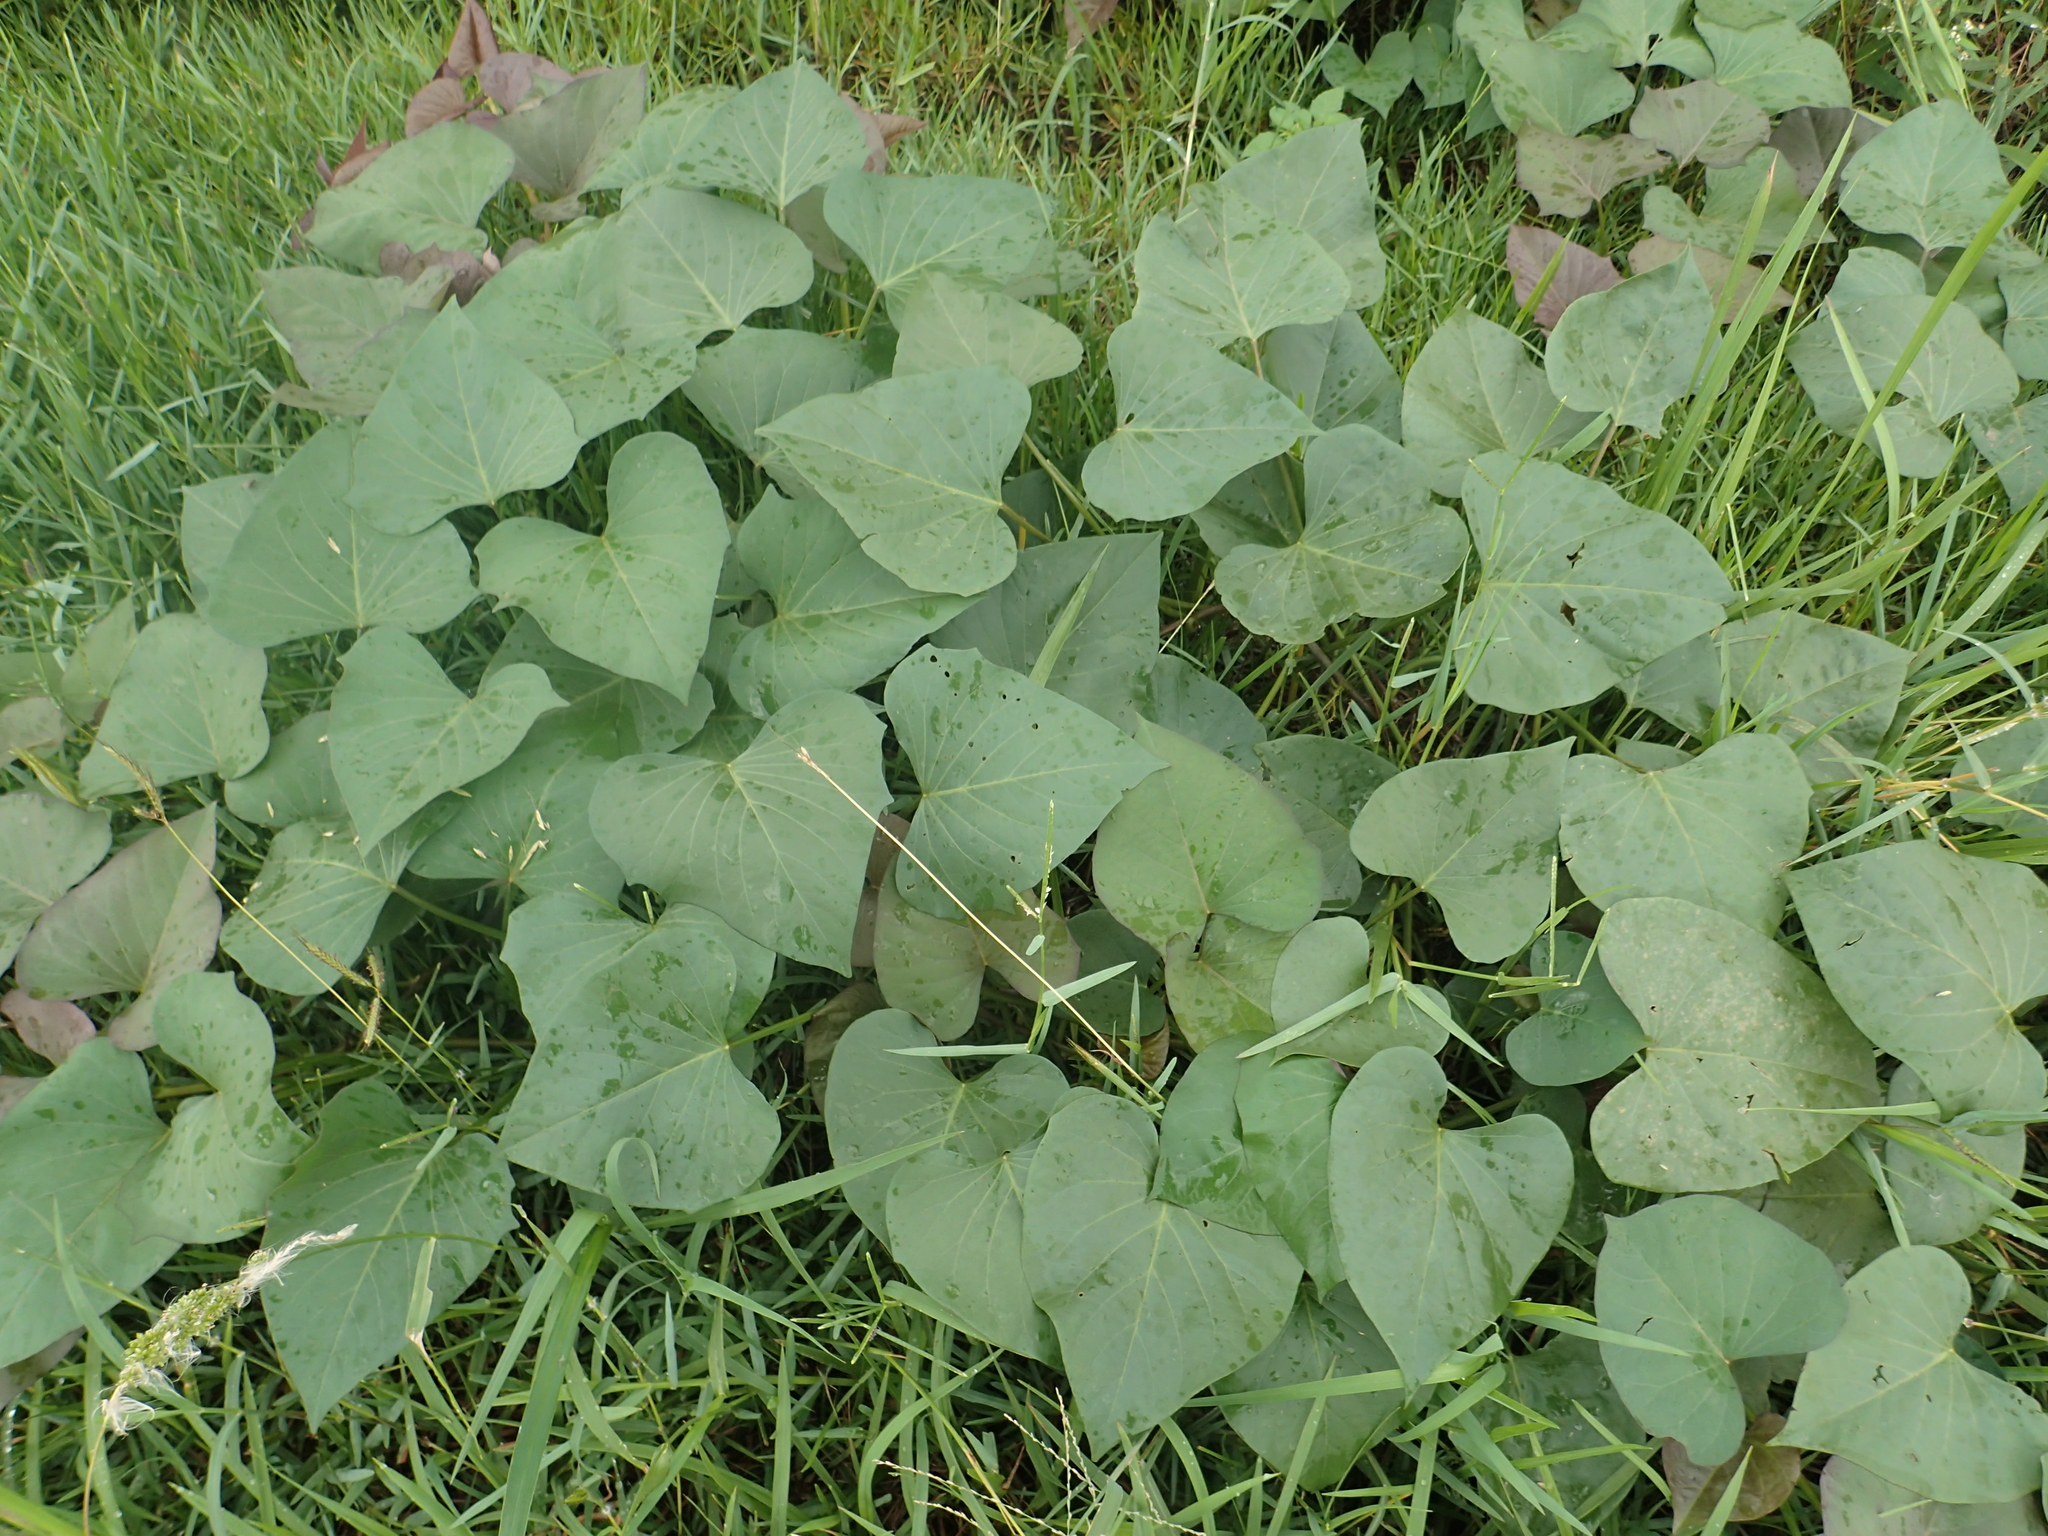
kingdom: Plantae
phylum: Tracheophyta
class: Magnoliopsida
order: Solanales
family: Convolvulaceae
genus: Ipomoea
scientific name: Ipomoea batatas
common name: Sweet-potato
